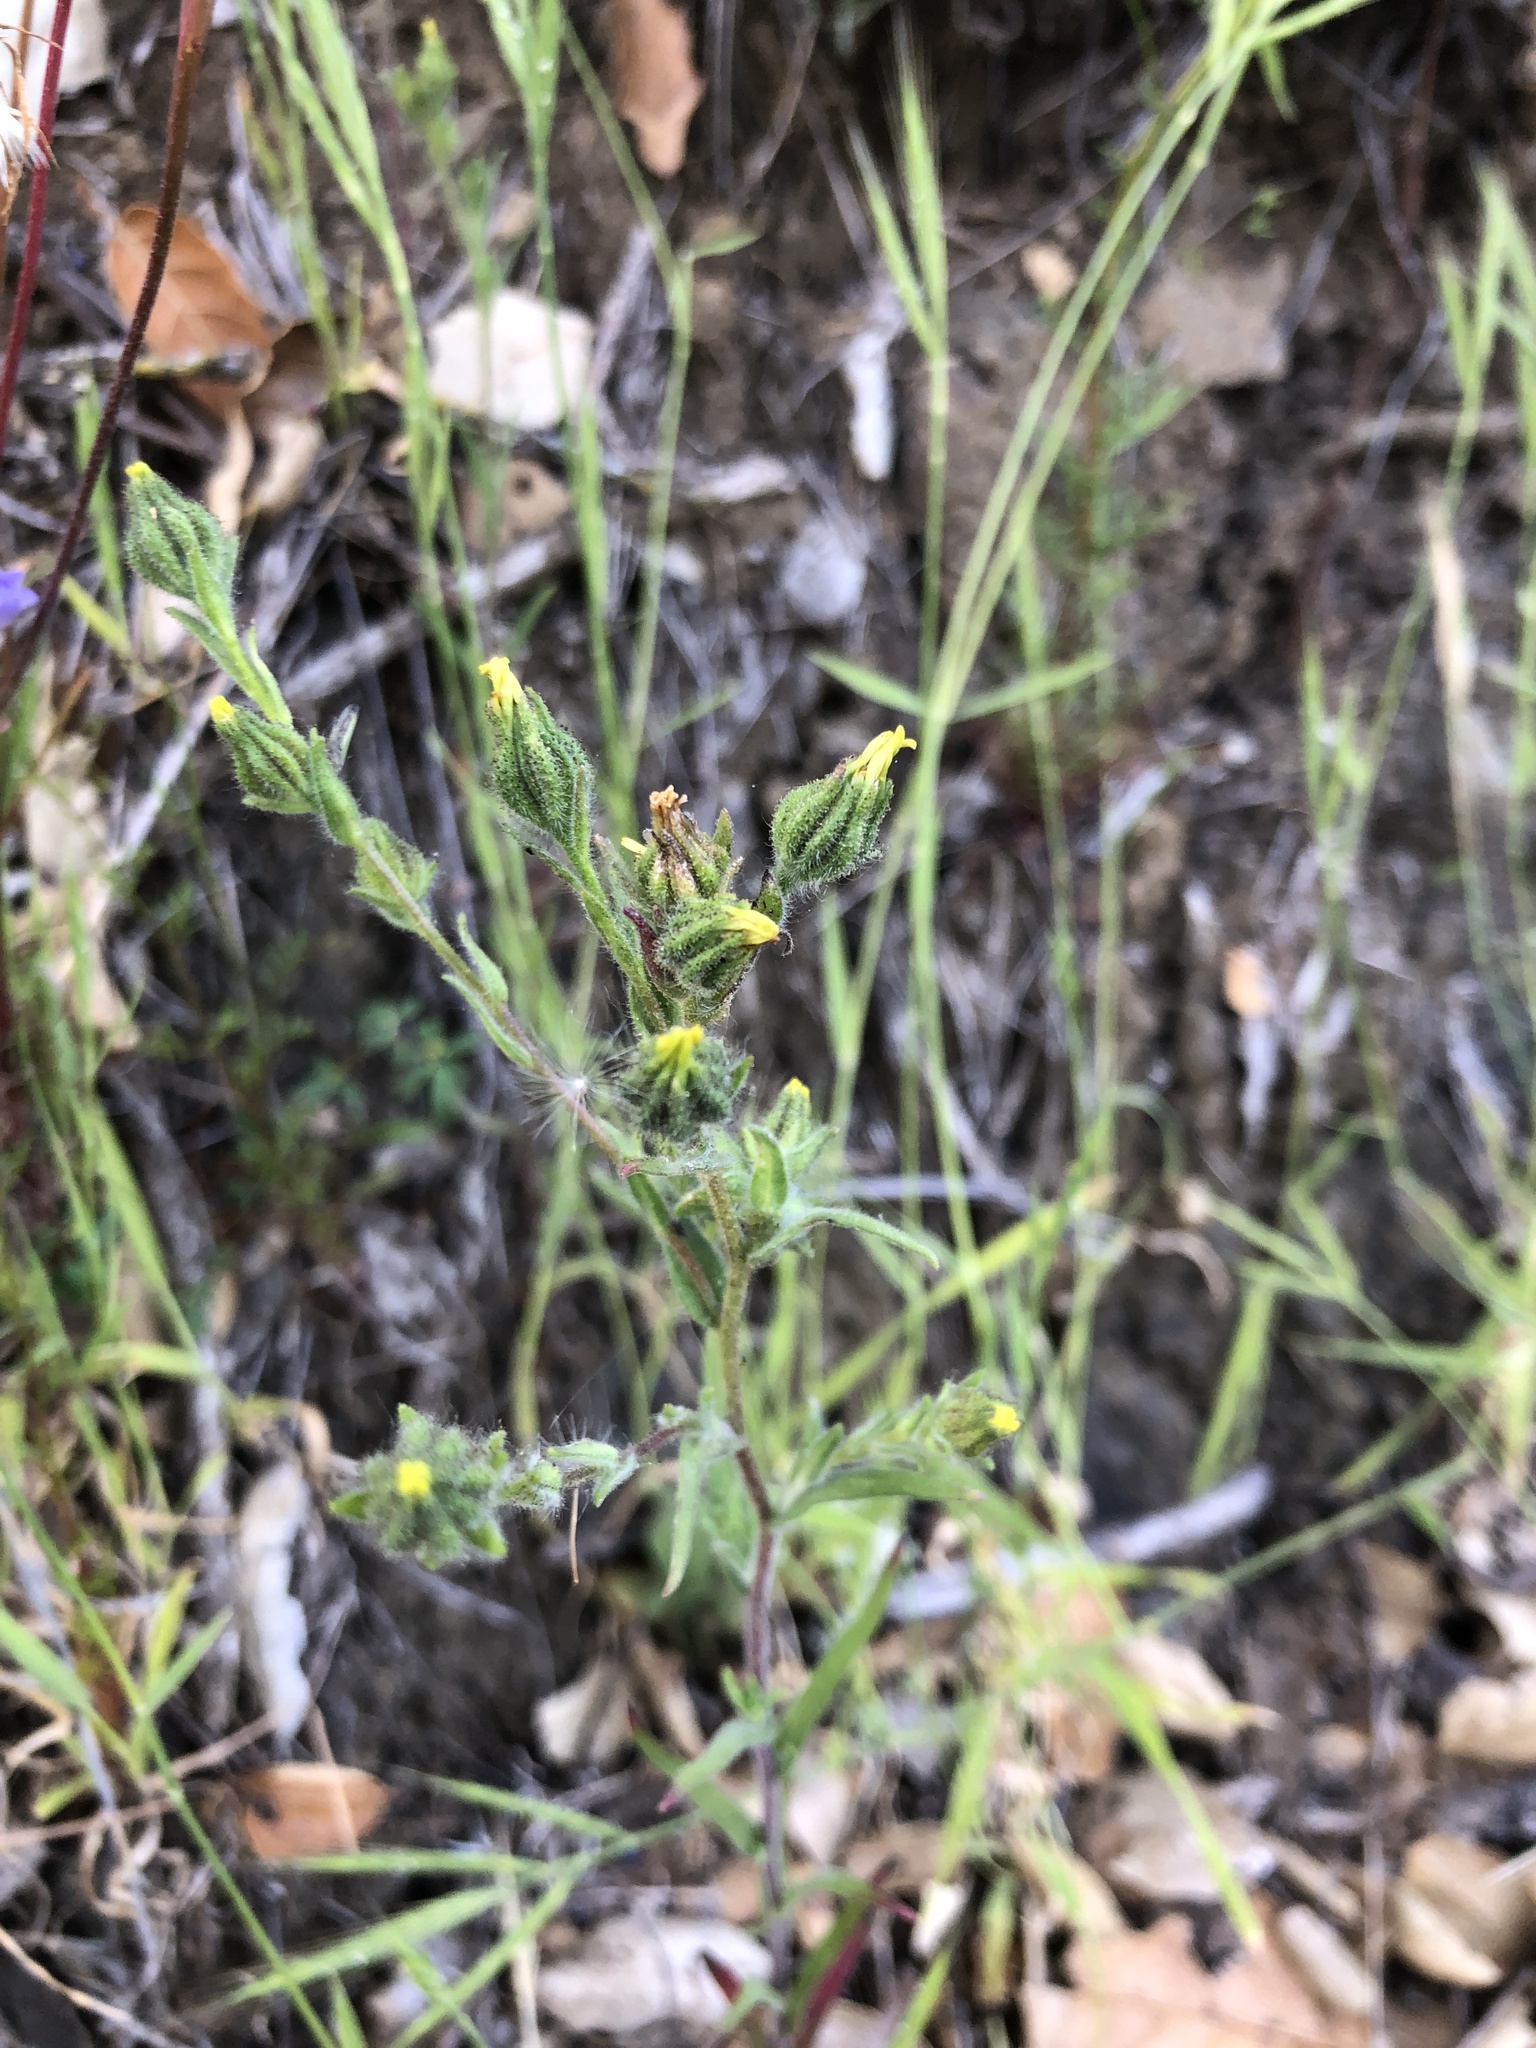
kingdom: Plantae
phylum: Tracheophyta
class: Magnoliopsida
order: Asterales
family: Asteraceae
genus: Madia
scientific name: Madia gracilis
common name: Grassy tarweed
